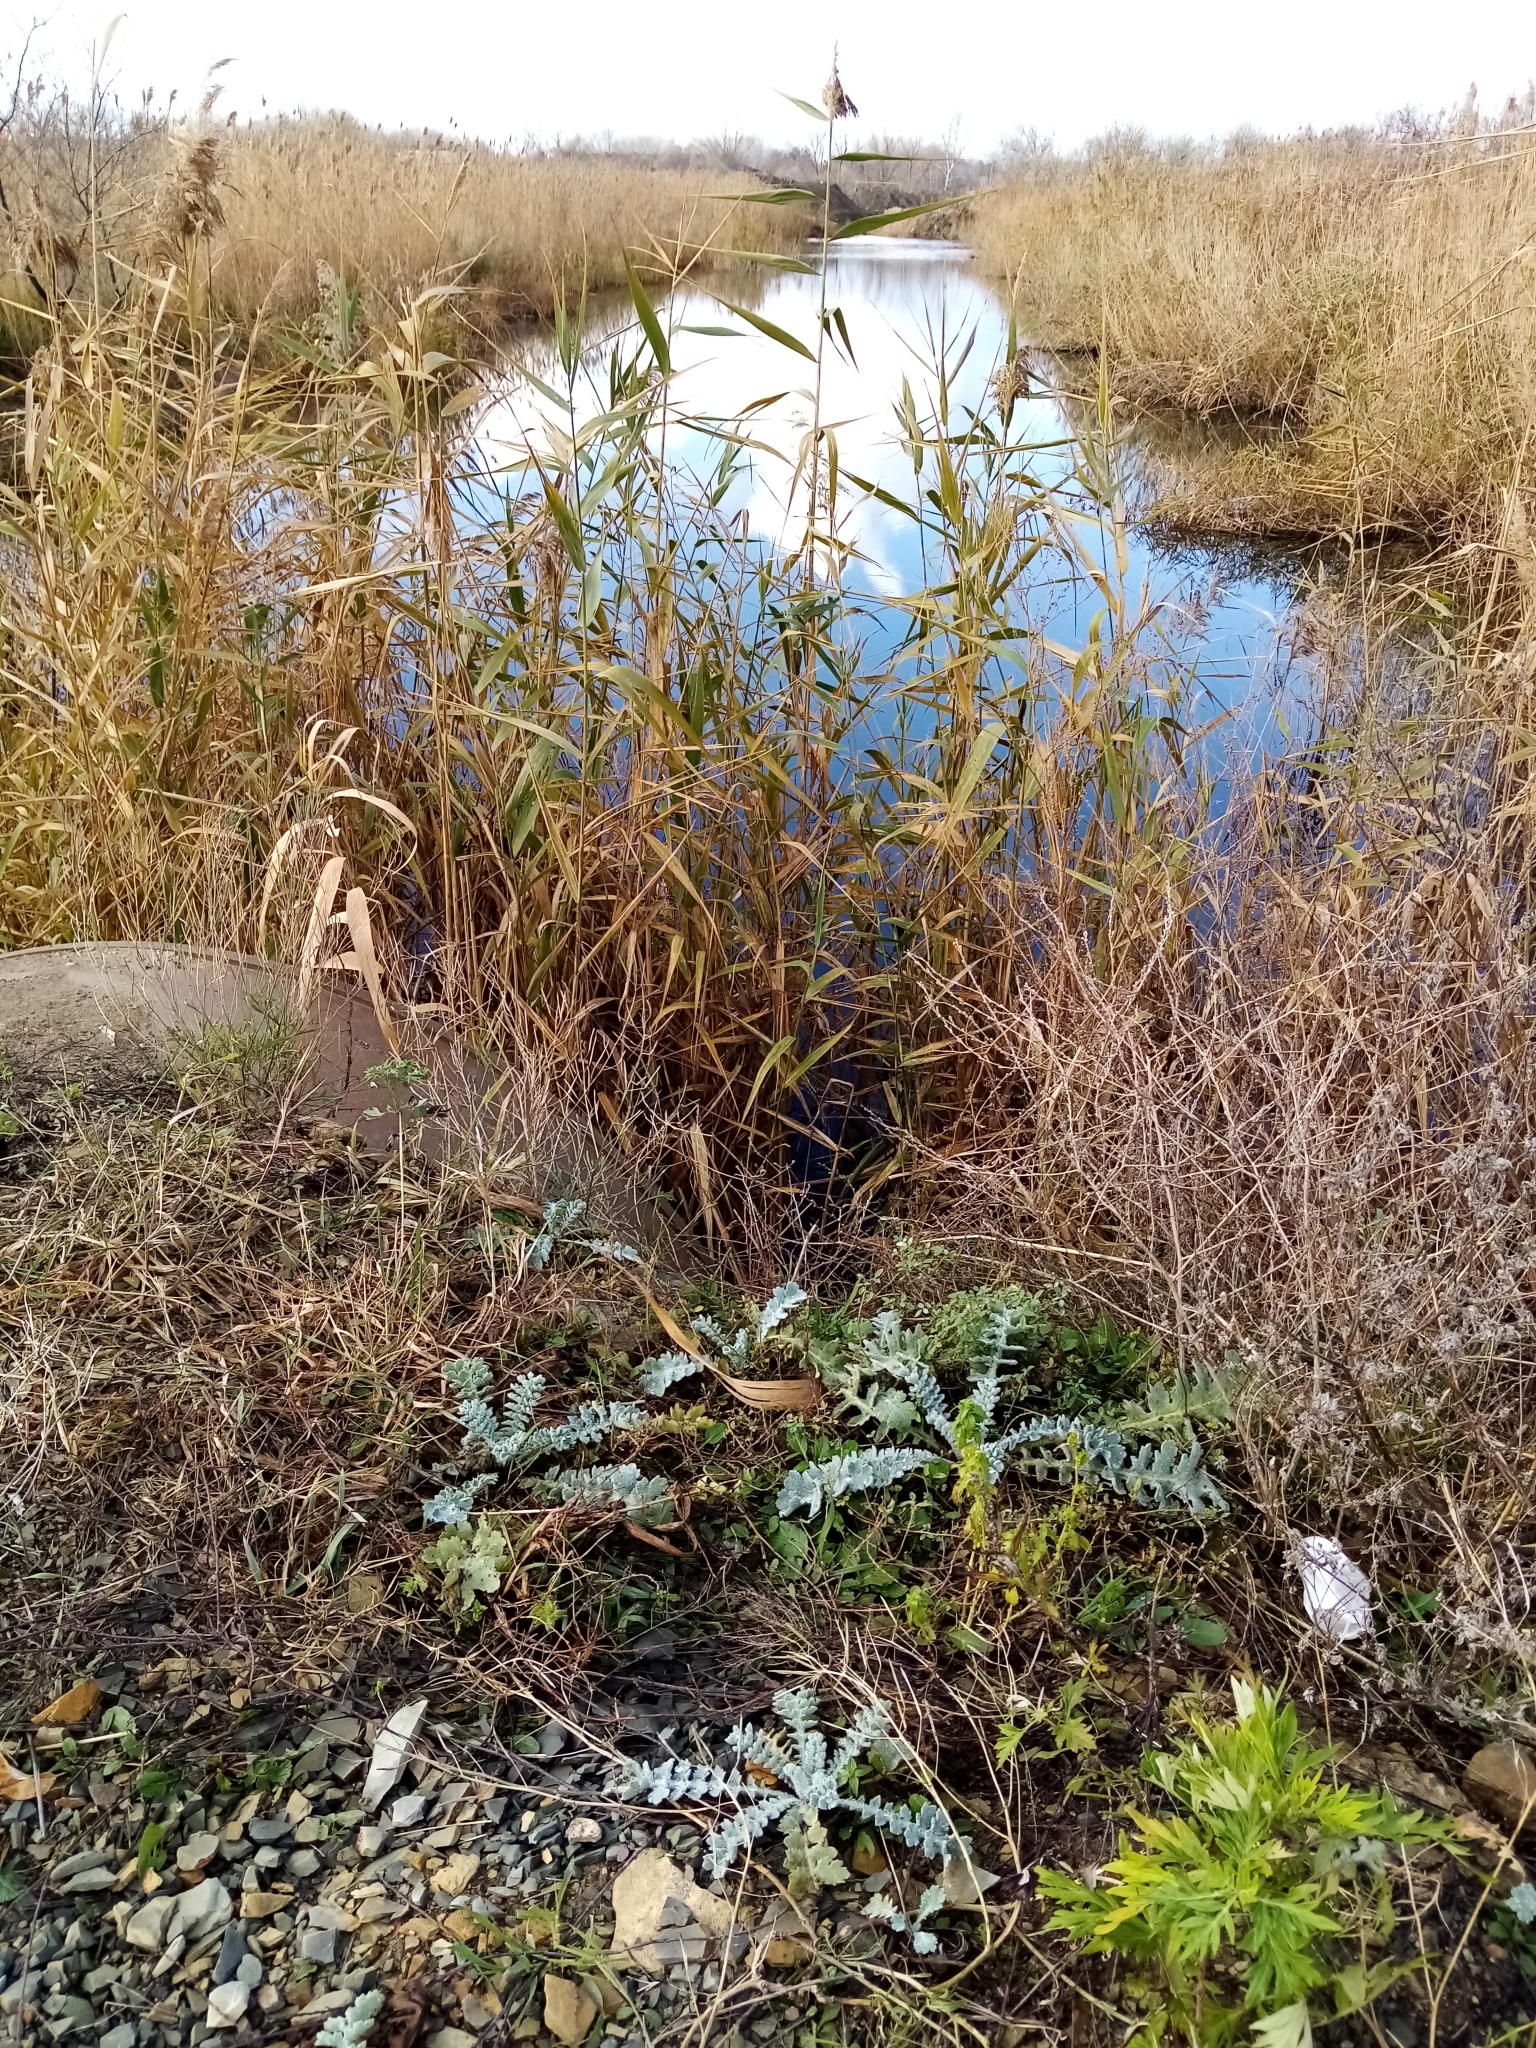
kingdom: Plantae
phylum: Tracheophyta
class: Magnoliopsida
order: Ranunculales
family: Papaveraceae
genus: Glaucium
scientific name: Glaucium flavum
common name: Yellow horned-poppy
